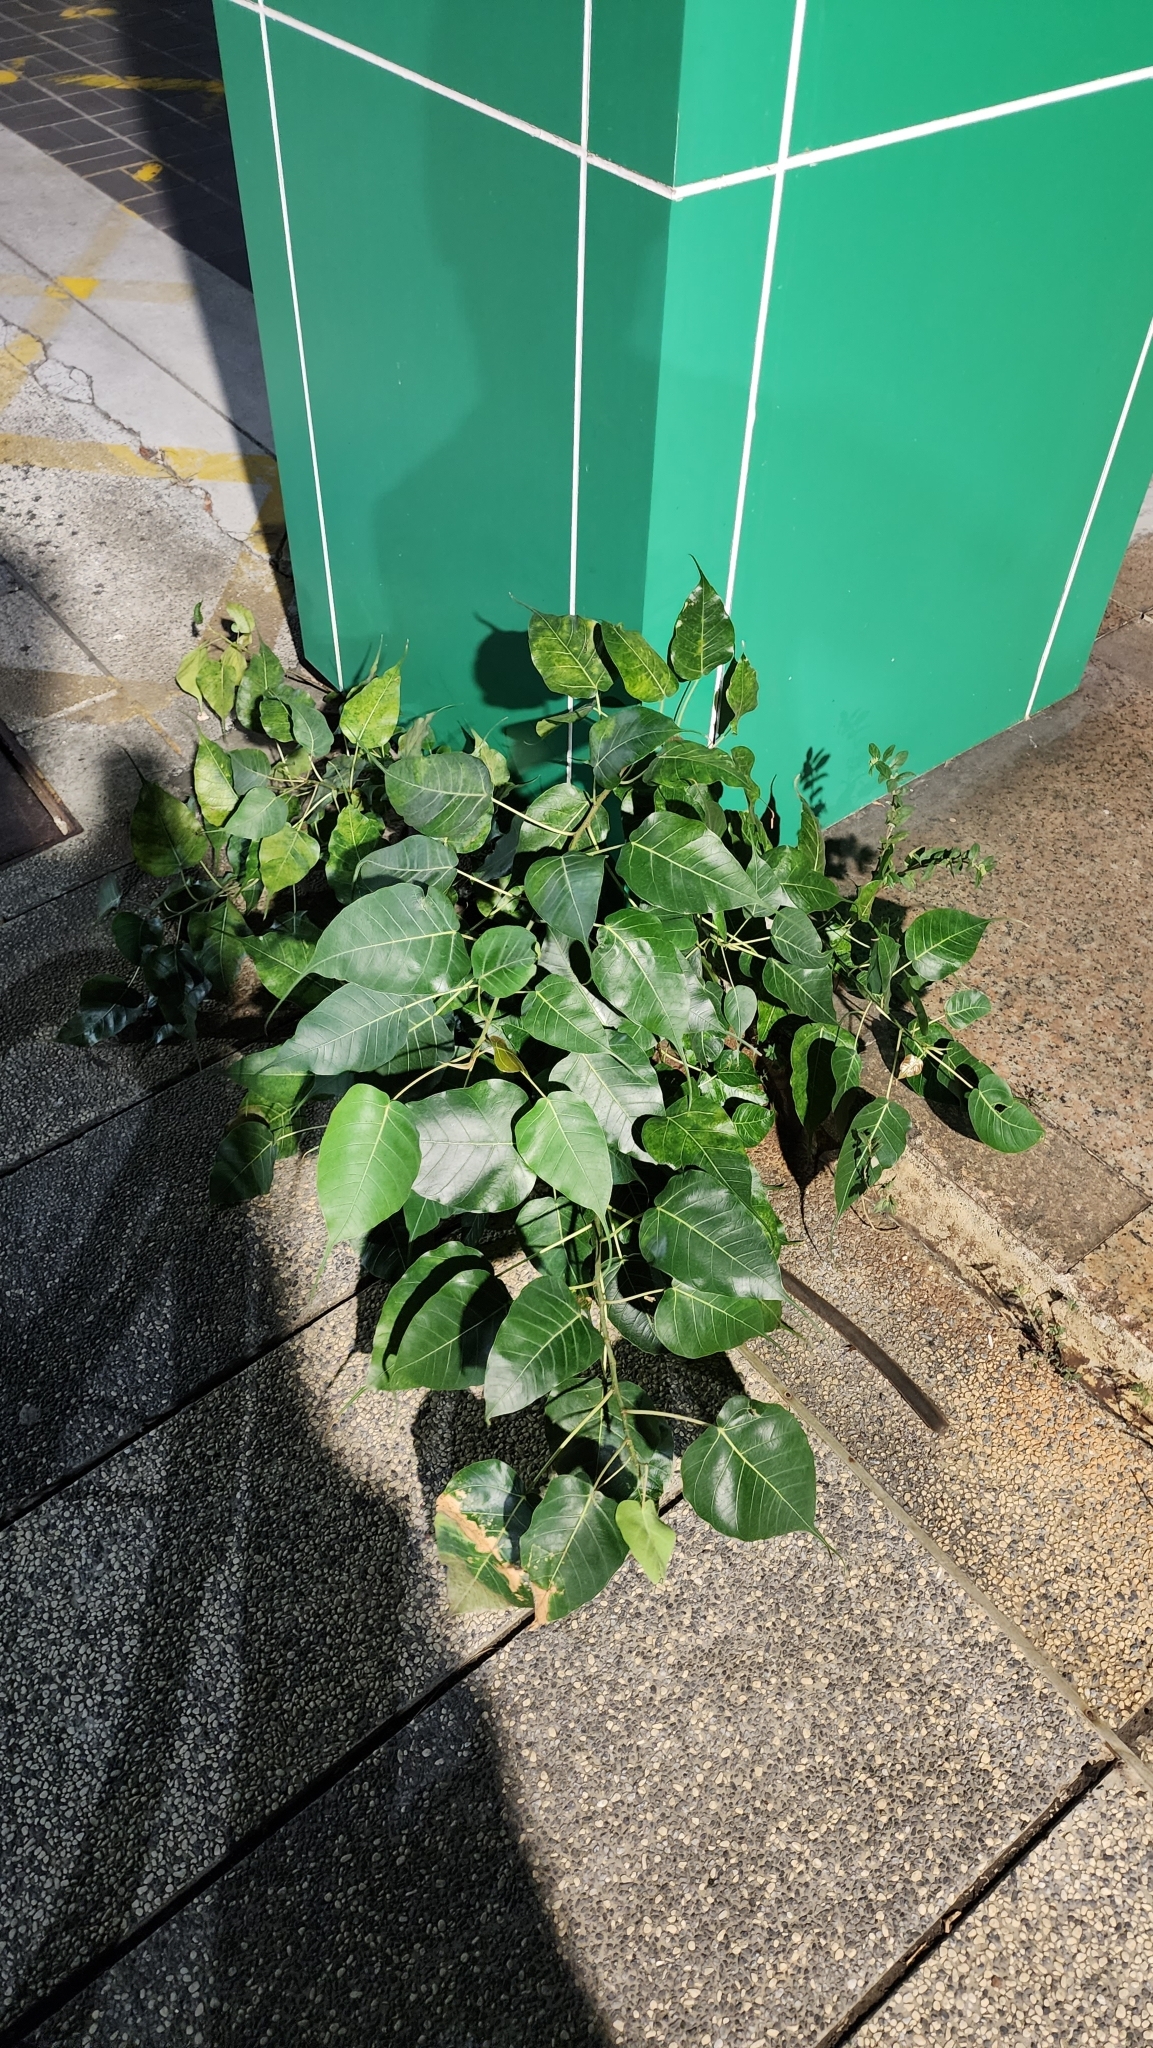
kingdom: Plantae
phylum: Tracheophyta
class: Magnoliopsida
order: Rosales
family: Moraceae
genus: Ficus
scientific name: Ficus religiosa
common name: Bodhi tree
